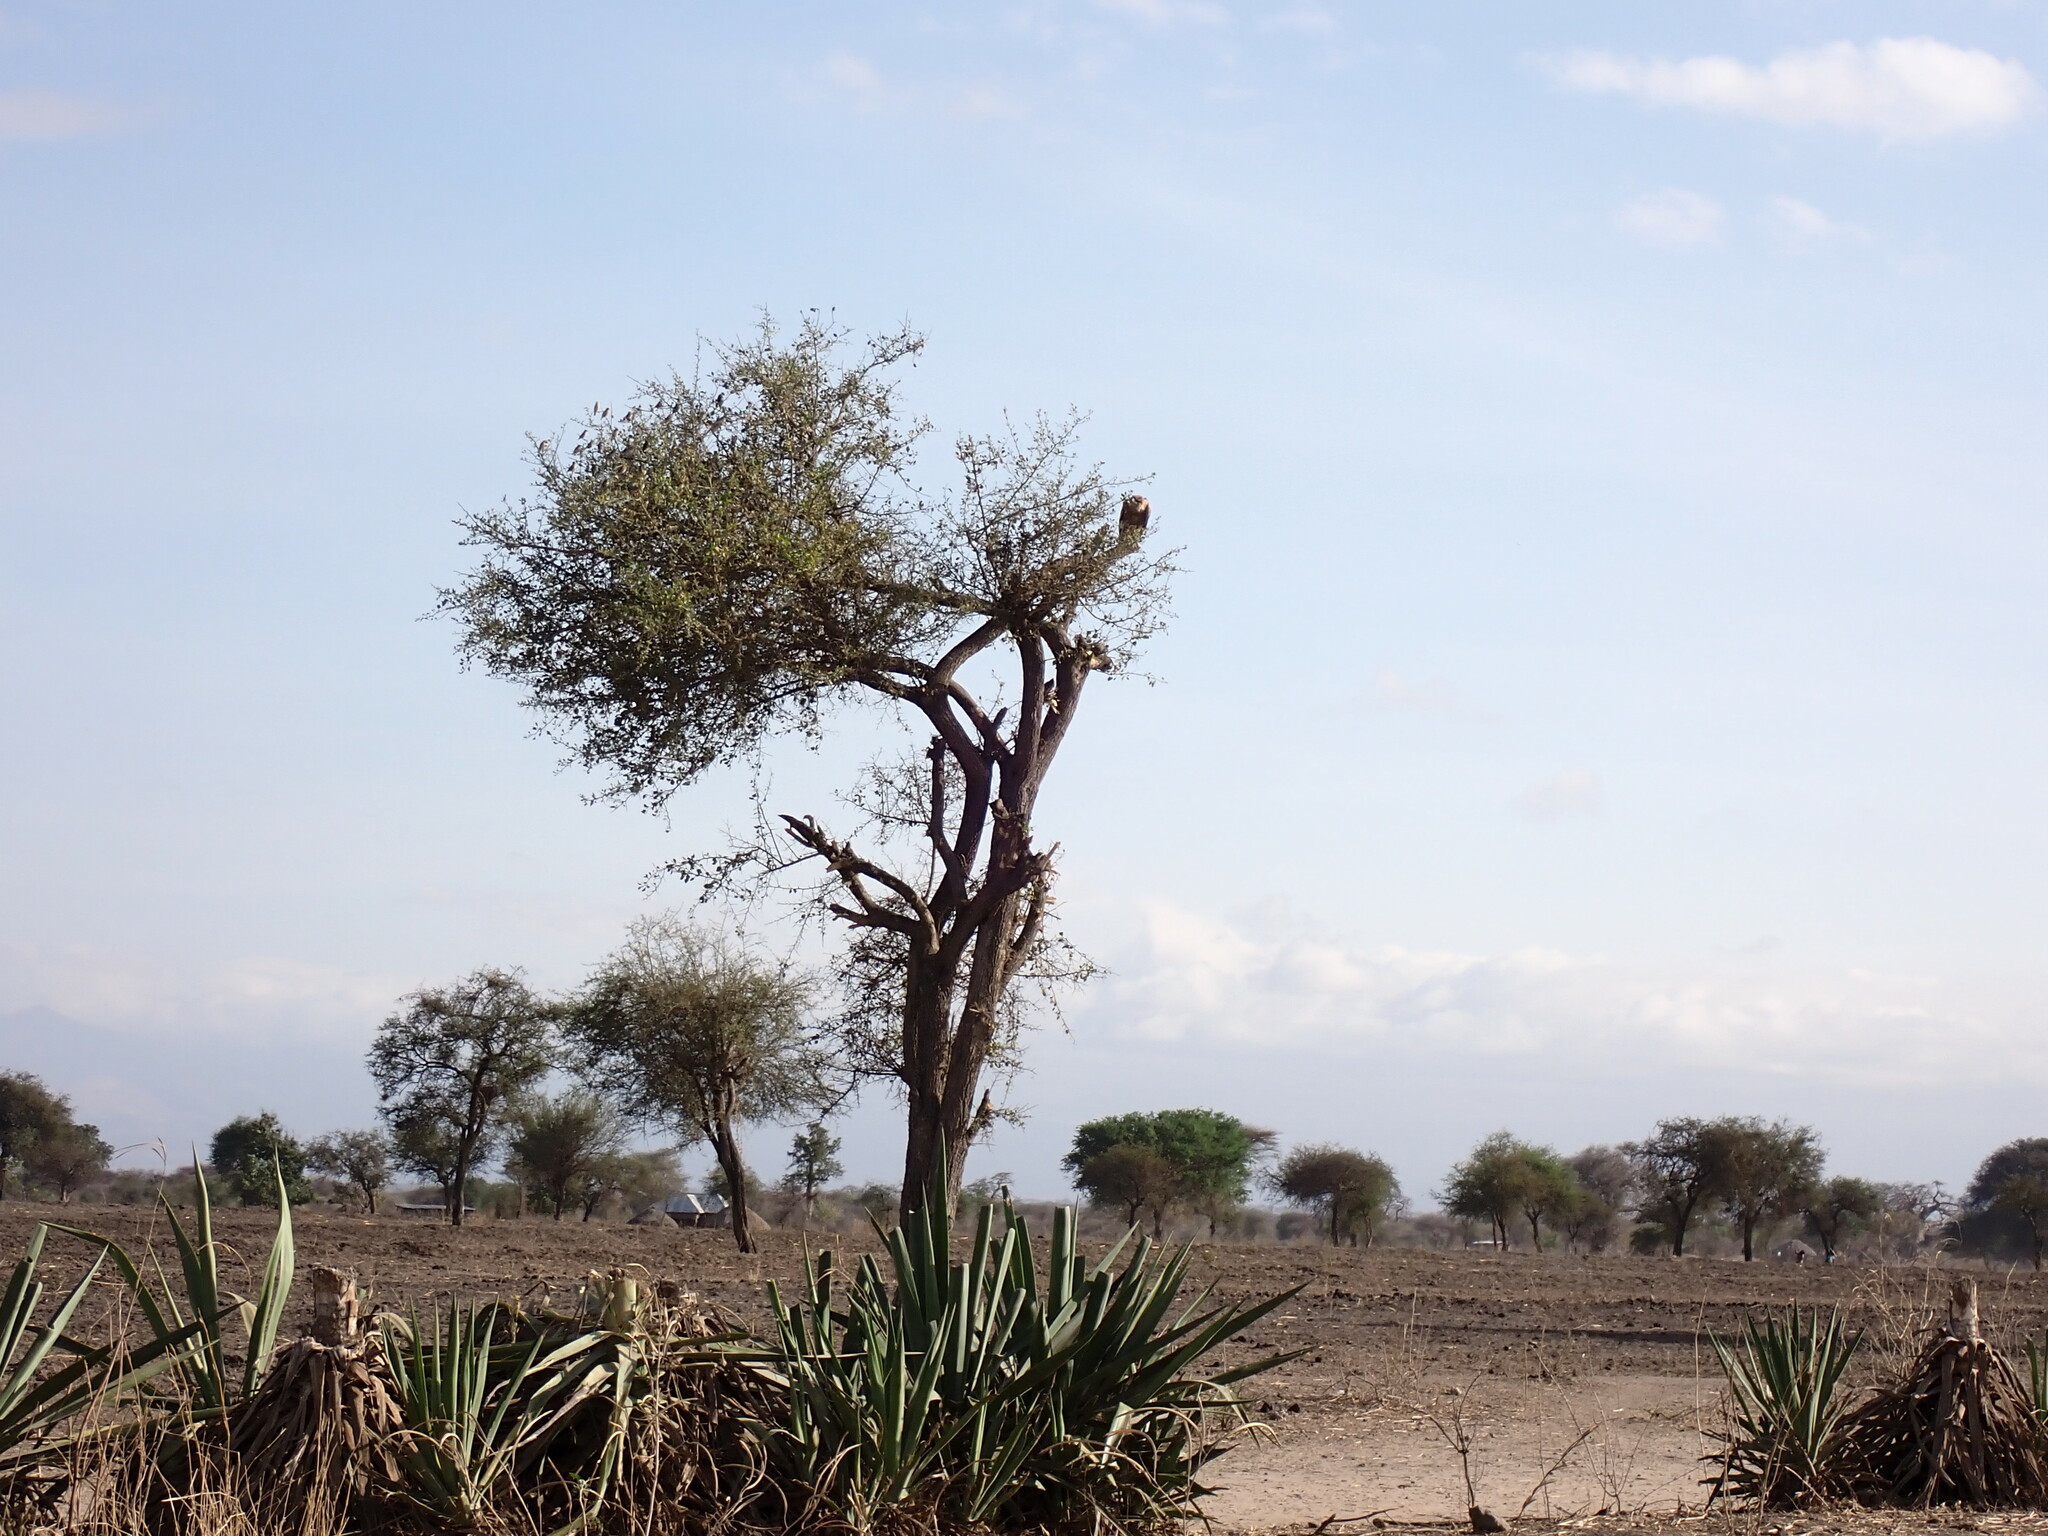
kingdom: Animalia
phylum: Chordata
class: Aves
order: Accipitriformes
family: Accipitridae
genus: Aquila
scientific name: Aquila rapax
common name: Tawny eagle
